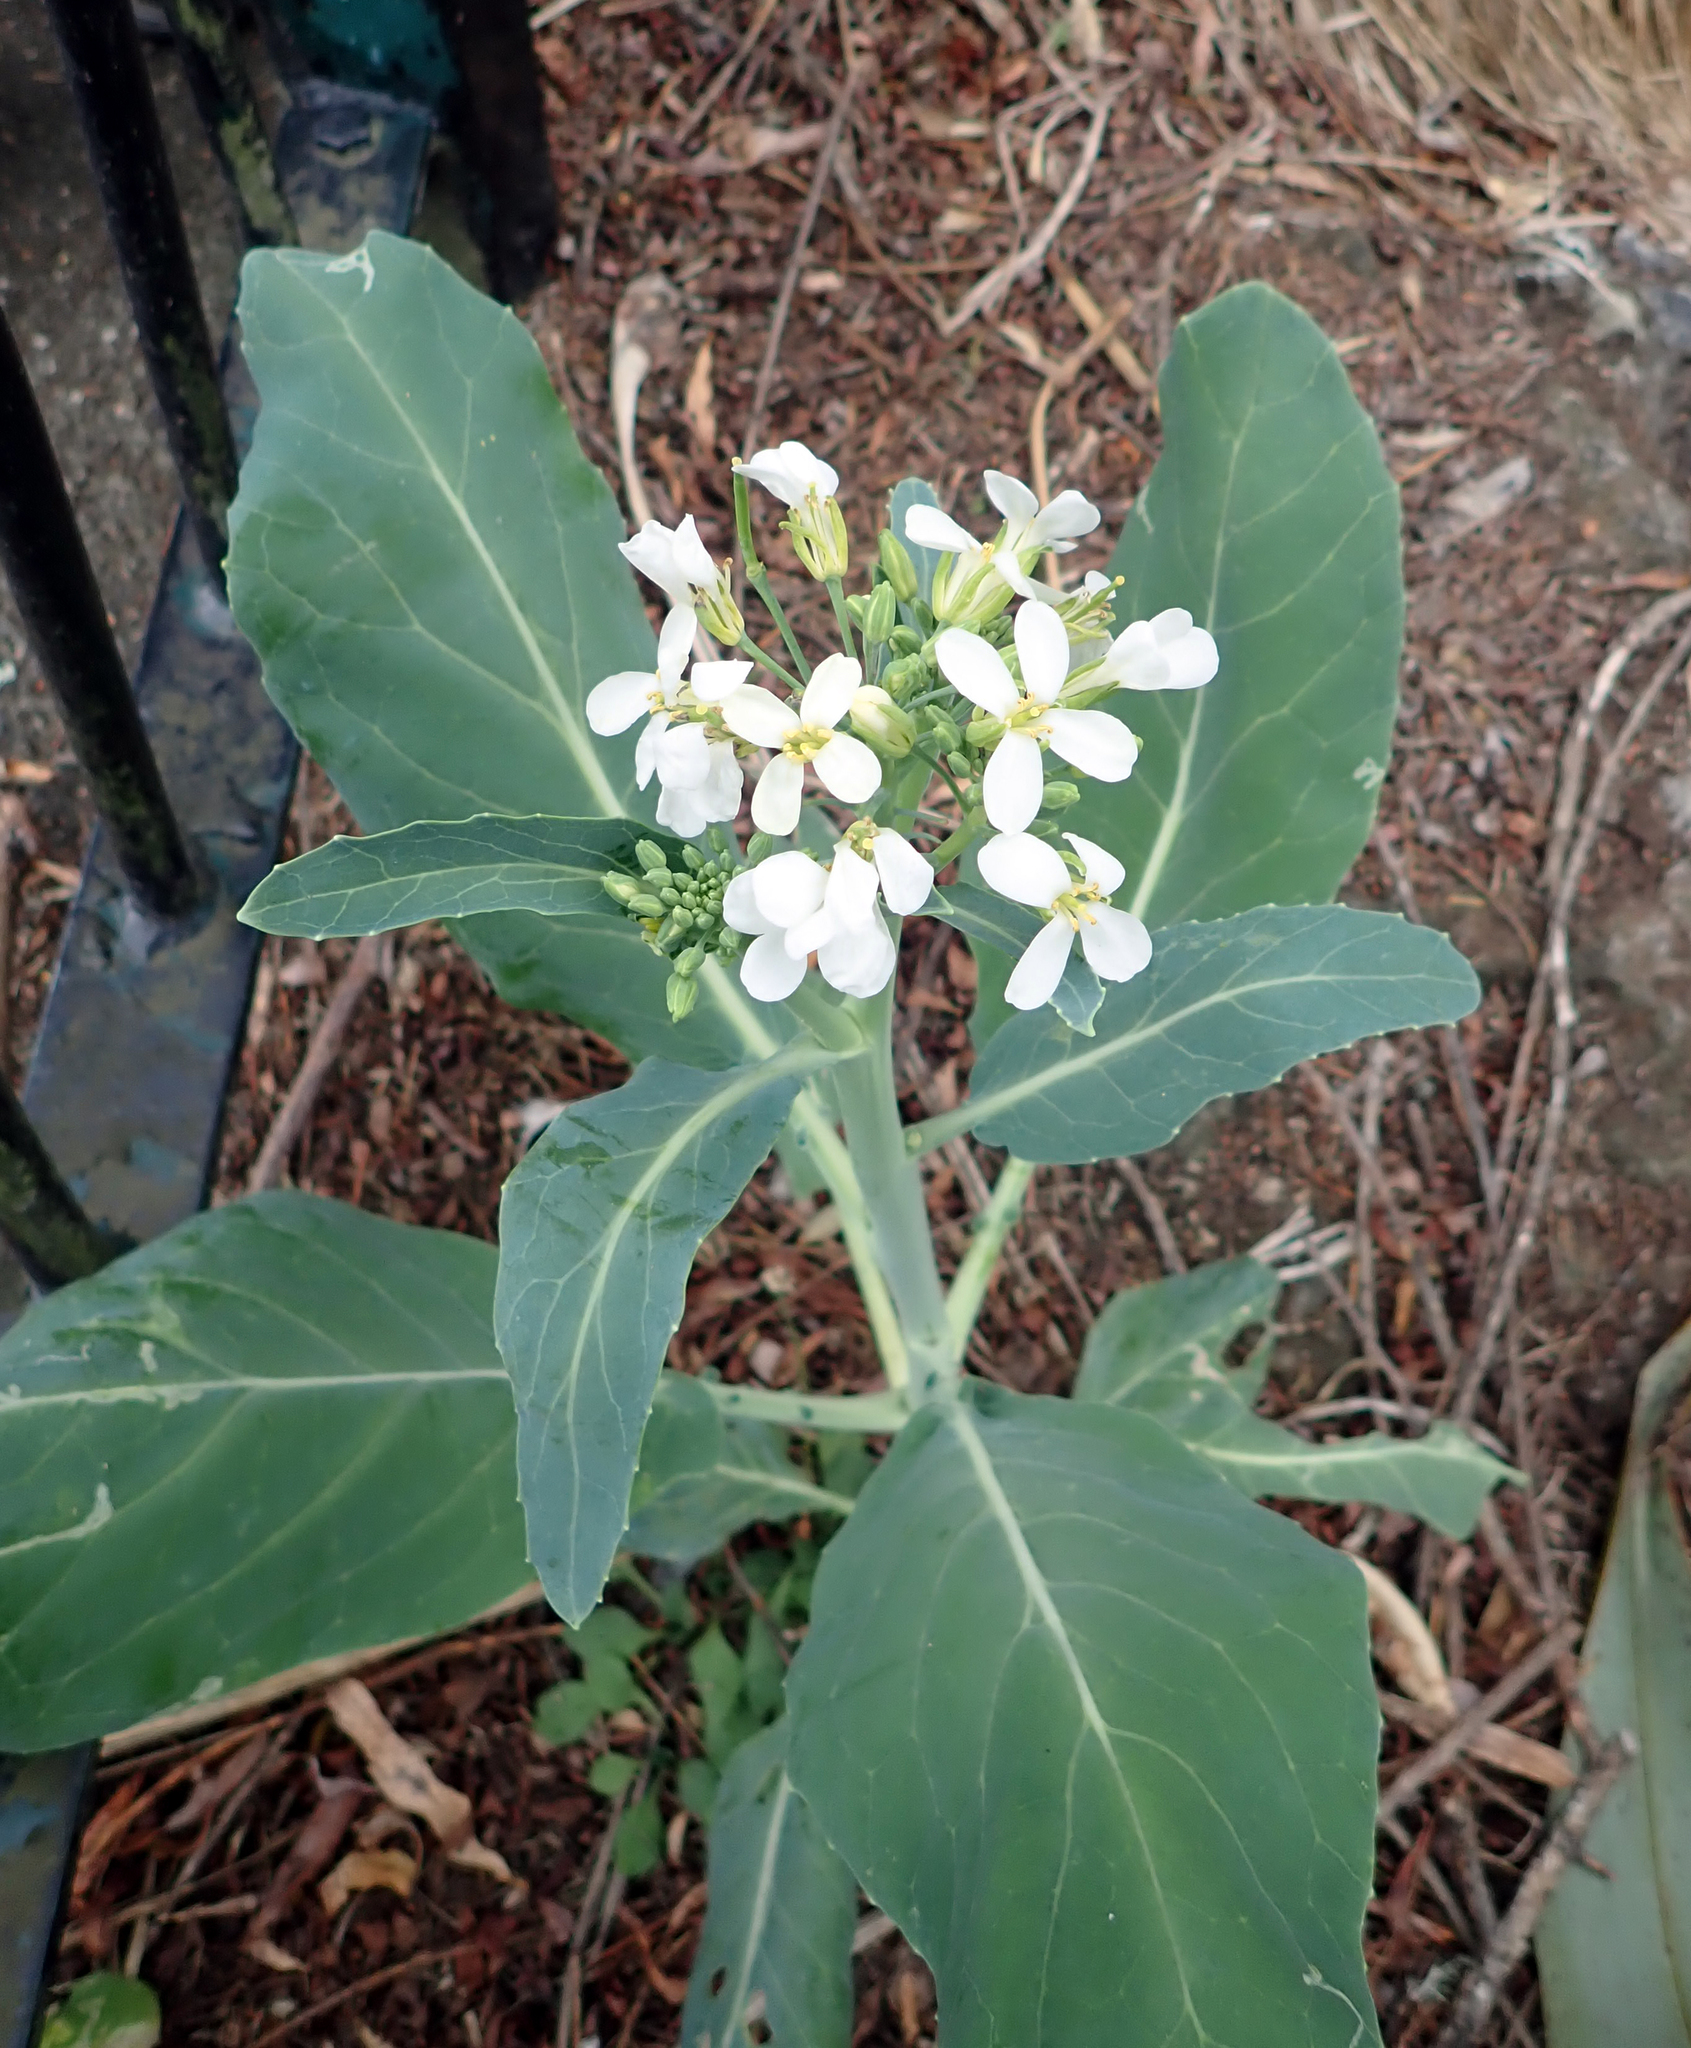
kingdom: Plantae
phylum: Tracheophyta
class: Magnoliopsida
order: Brassicales
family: Brassicaceae
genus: Brassica
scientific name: Brassica oleracea
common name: Cabbage
